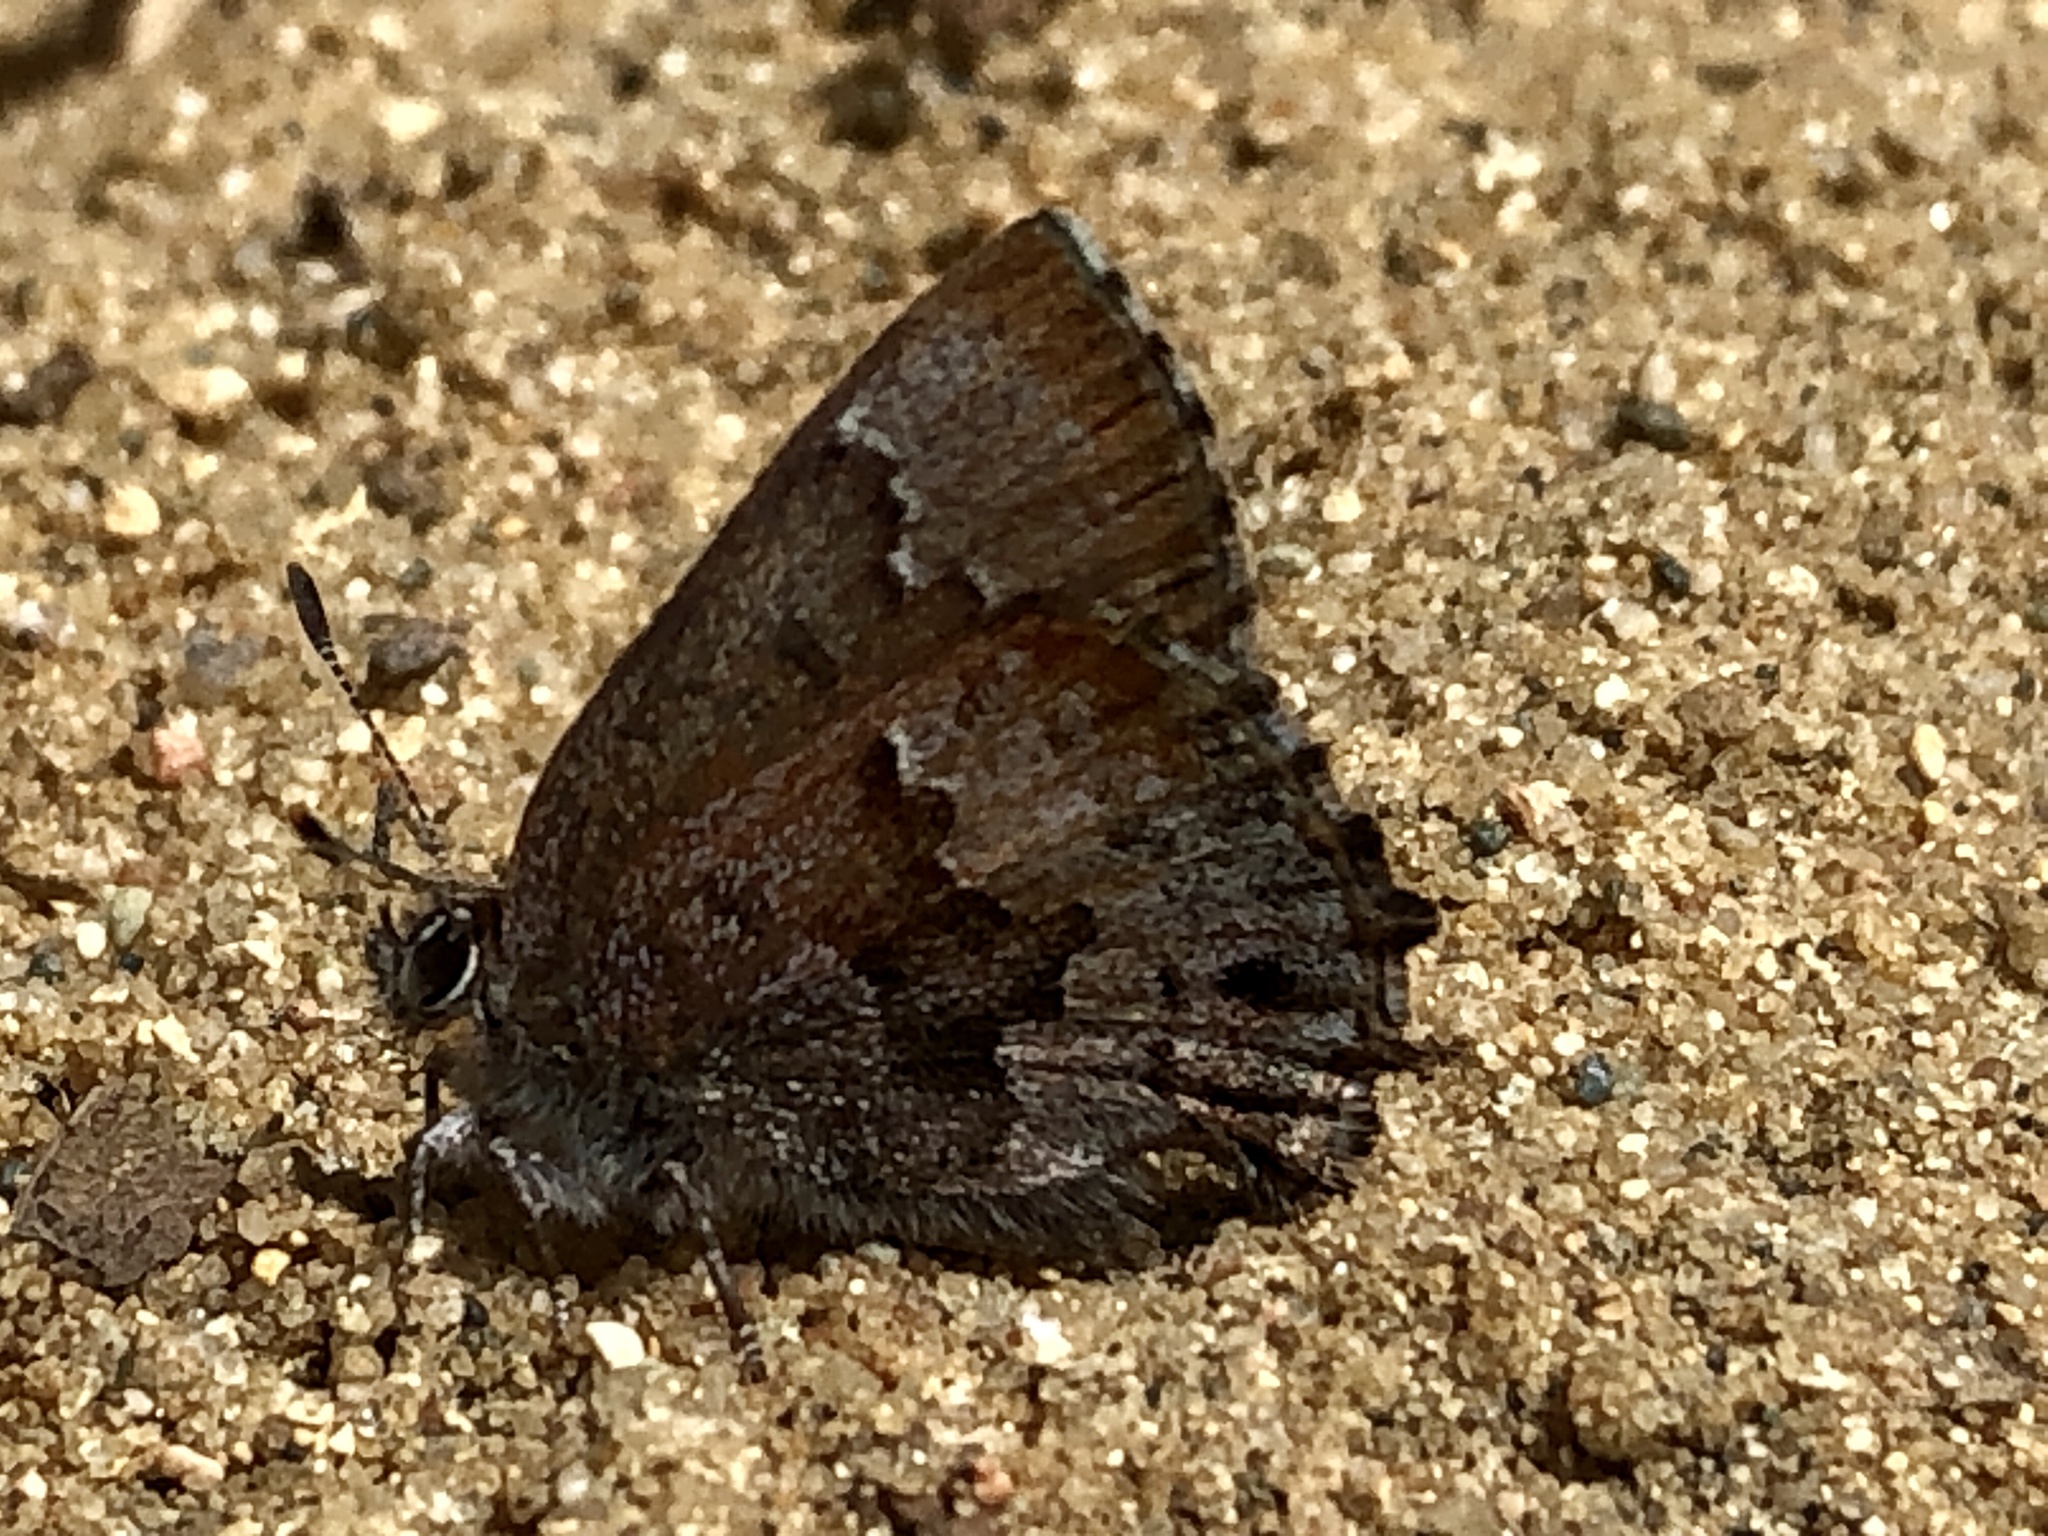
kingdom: Animalia
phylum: Arthropoda
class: Insecta
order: Lepidoptera
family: Lycaenidae
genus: Thecla
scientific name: Thecla irus
